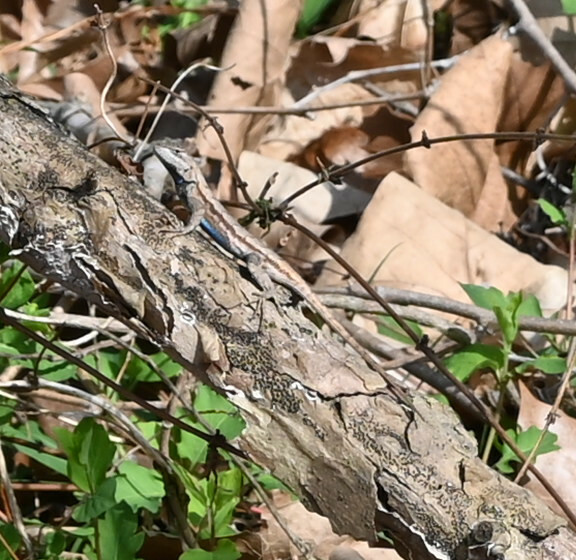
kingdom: Animalia
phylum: Chordata
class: Squamata
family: Phrynosomatidae
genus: Sceloporus
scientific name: Sceloporus consobrinus
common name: Southern prairie lizard
